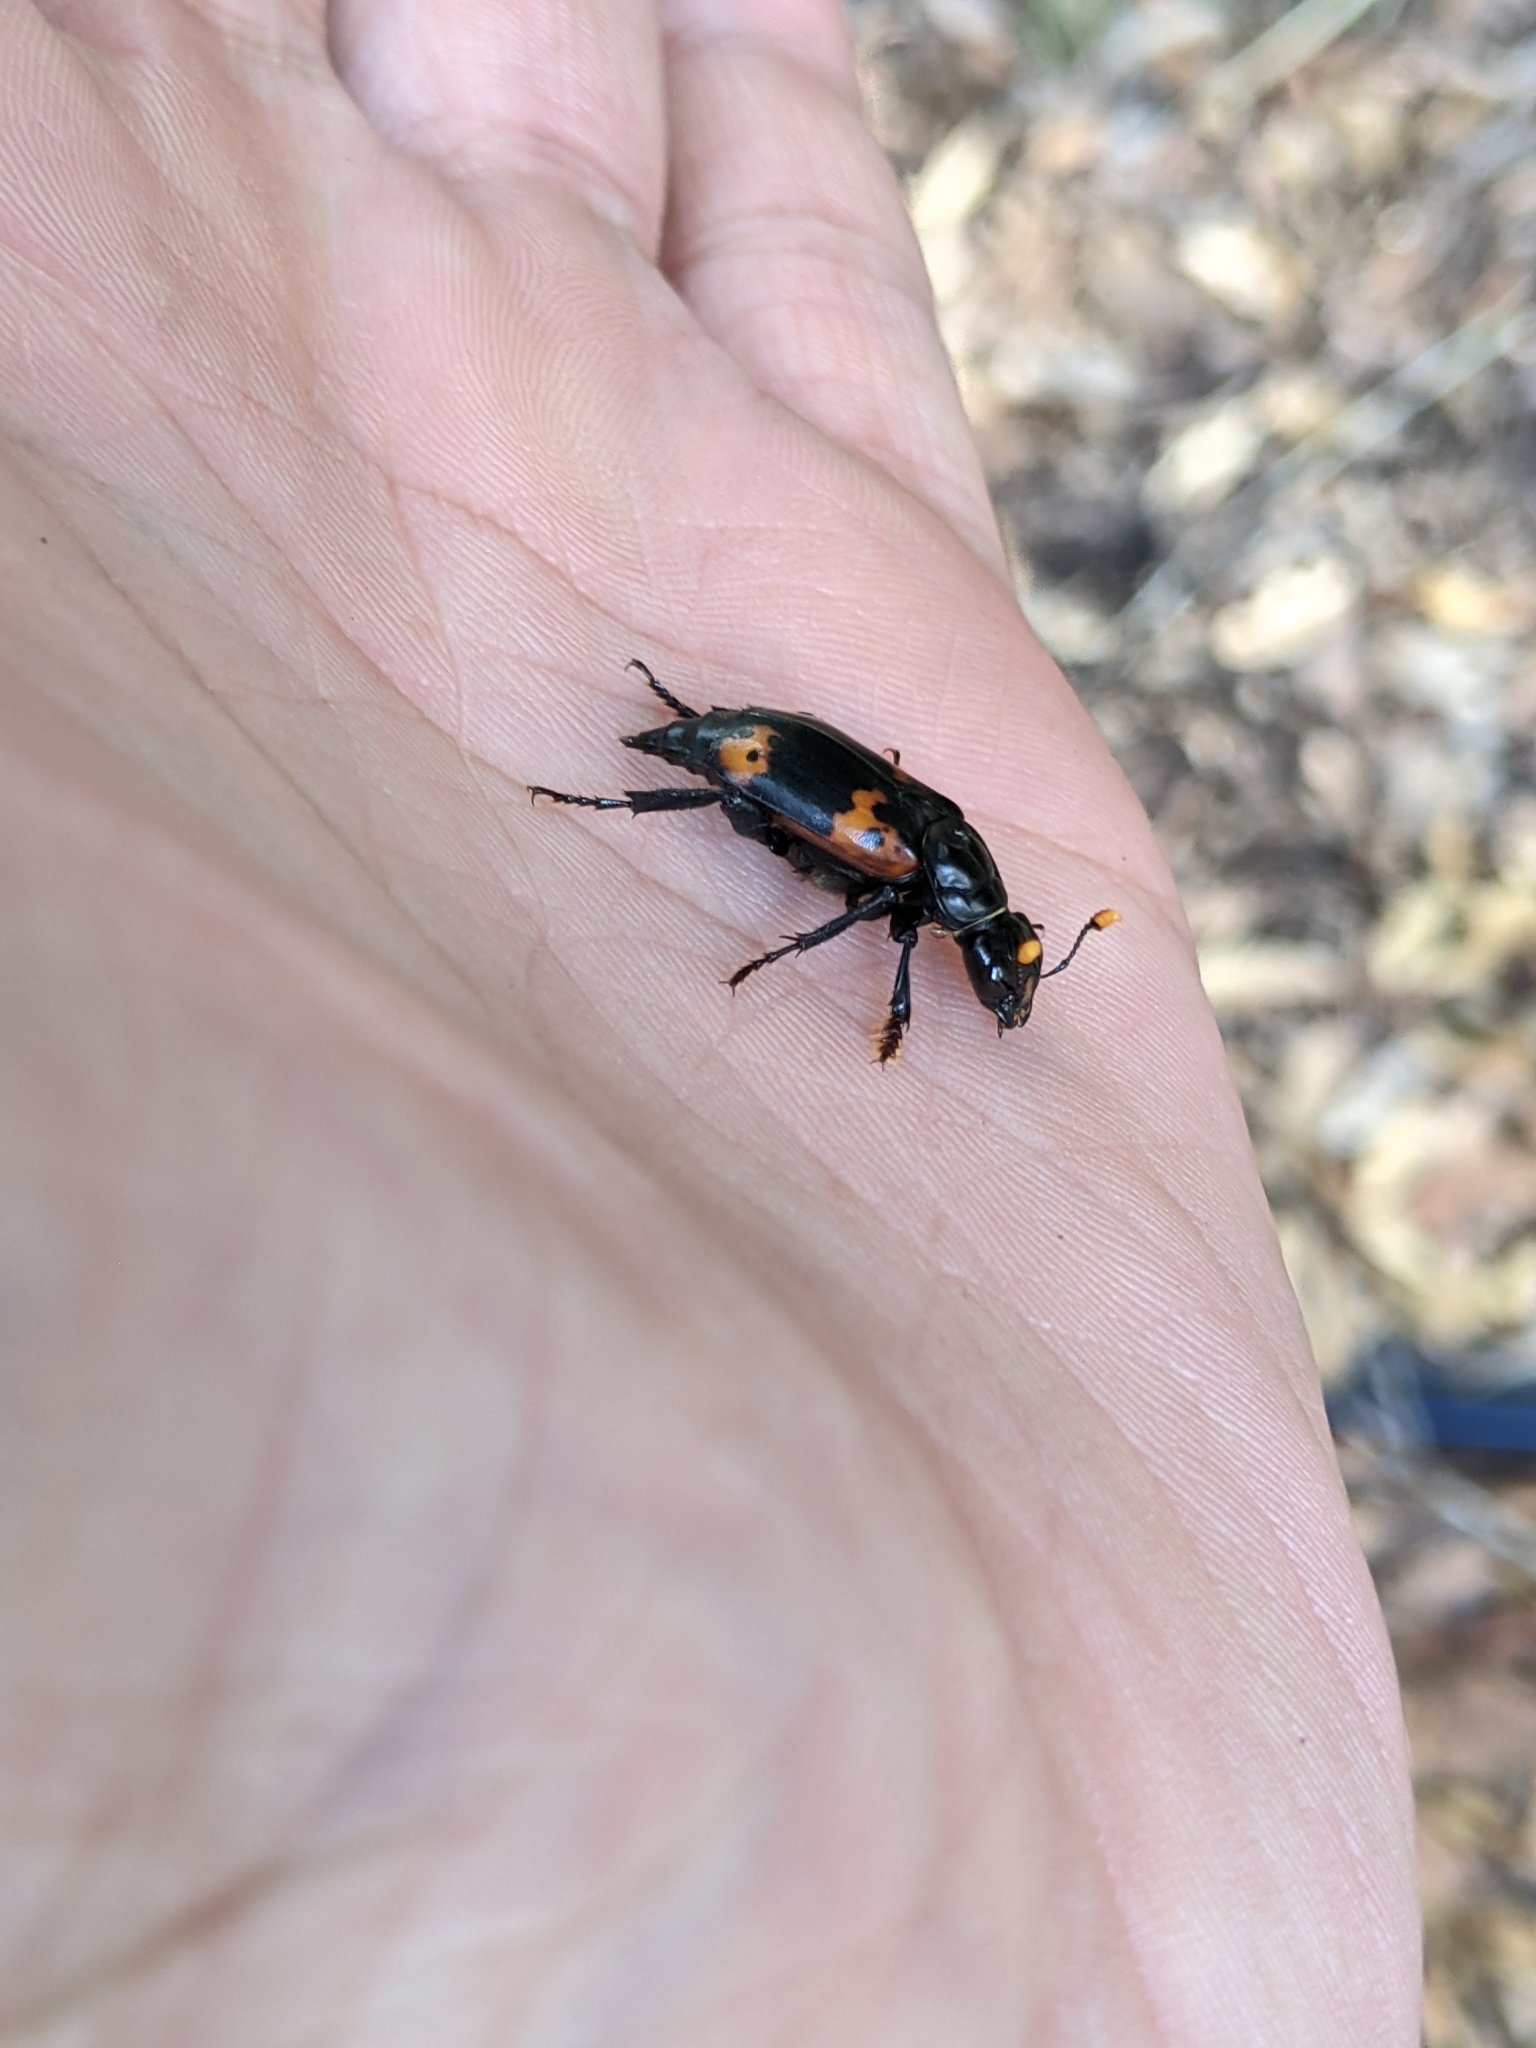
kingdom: Animalia
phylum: Arthropoda
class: Insecta
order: Coleoptera
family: Staphylinidae
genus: Nicrophorus
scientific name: Nicrophorus nepalensis
